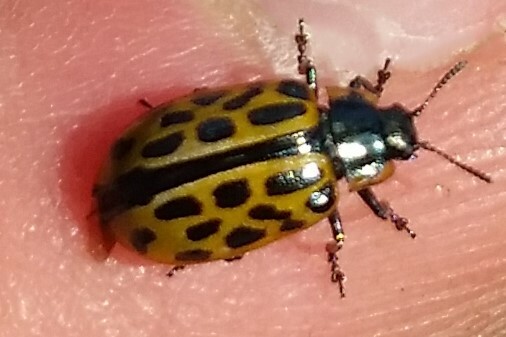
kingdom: Animalia
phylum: Arthropoda
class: Insecta
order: Coleoptera
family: Chrysomelidae
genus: Chrysomela
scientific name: Chrysomela vigintipunctata
